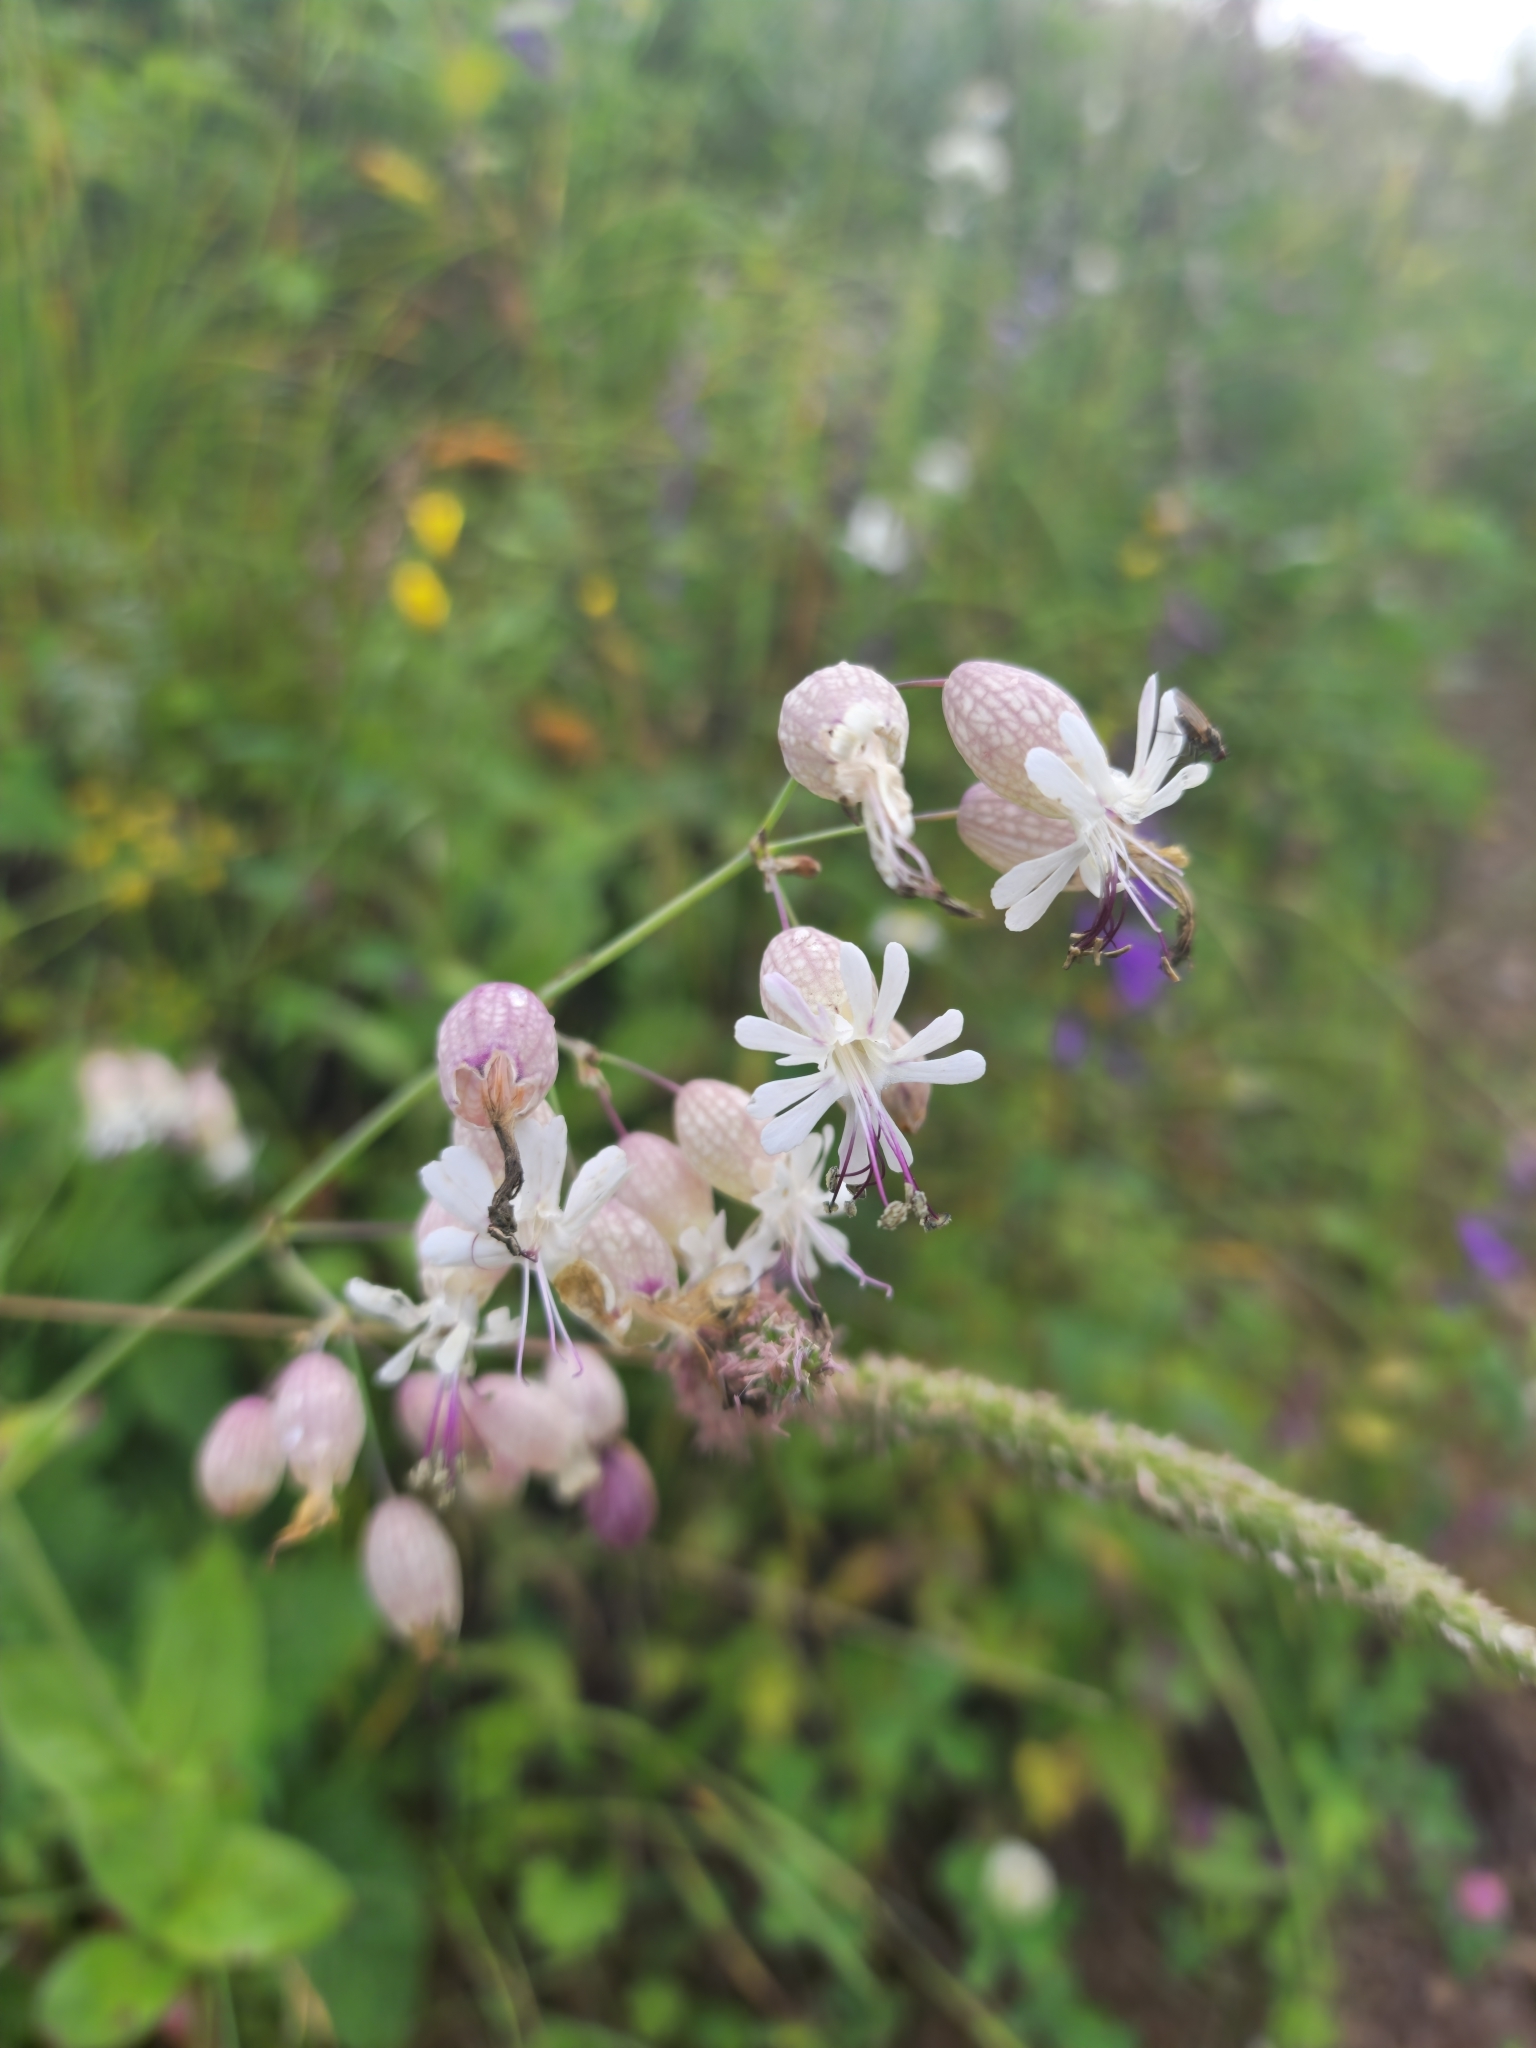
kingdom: Plantae
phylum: Tracheophyta
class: Magnoliopsida
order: Caryophyllales
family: Caryophyllaceae
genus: Silene
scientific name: Silene vulgaris
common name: Bladder campion
